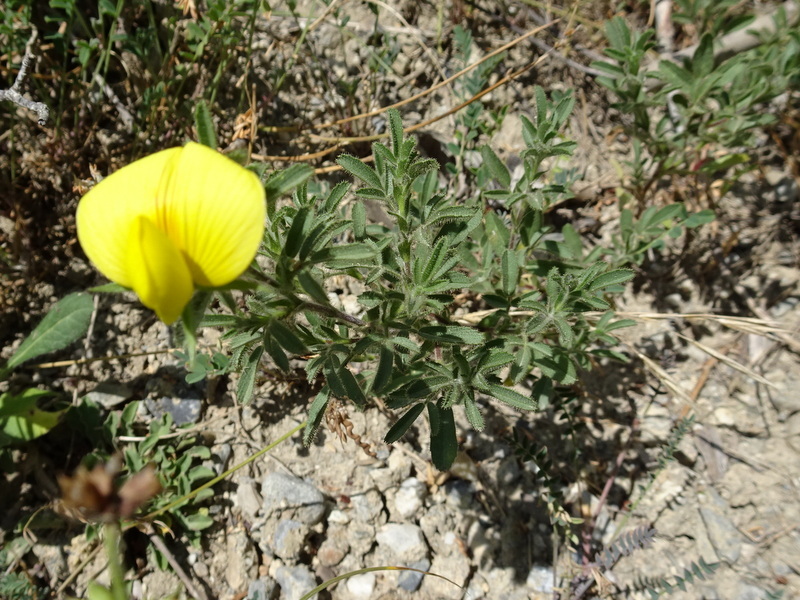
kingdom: Plantae
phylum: Tracheophyta
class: Magnoliopsida
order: Fabales
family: Fabaceae
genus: Ononis
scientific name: Ononis natrix
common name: Yellow restharrow
